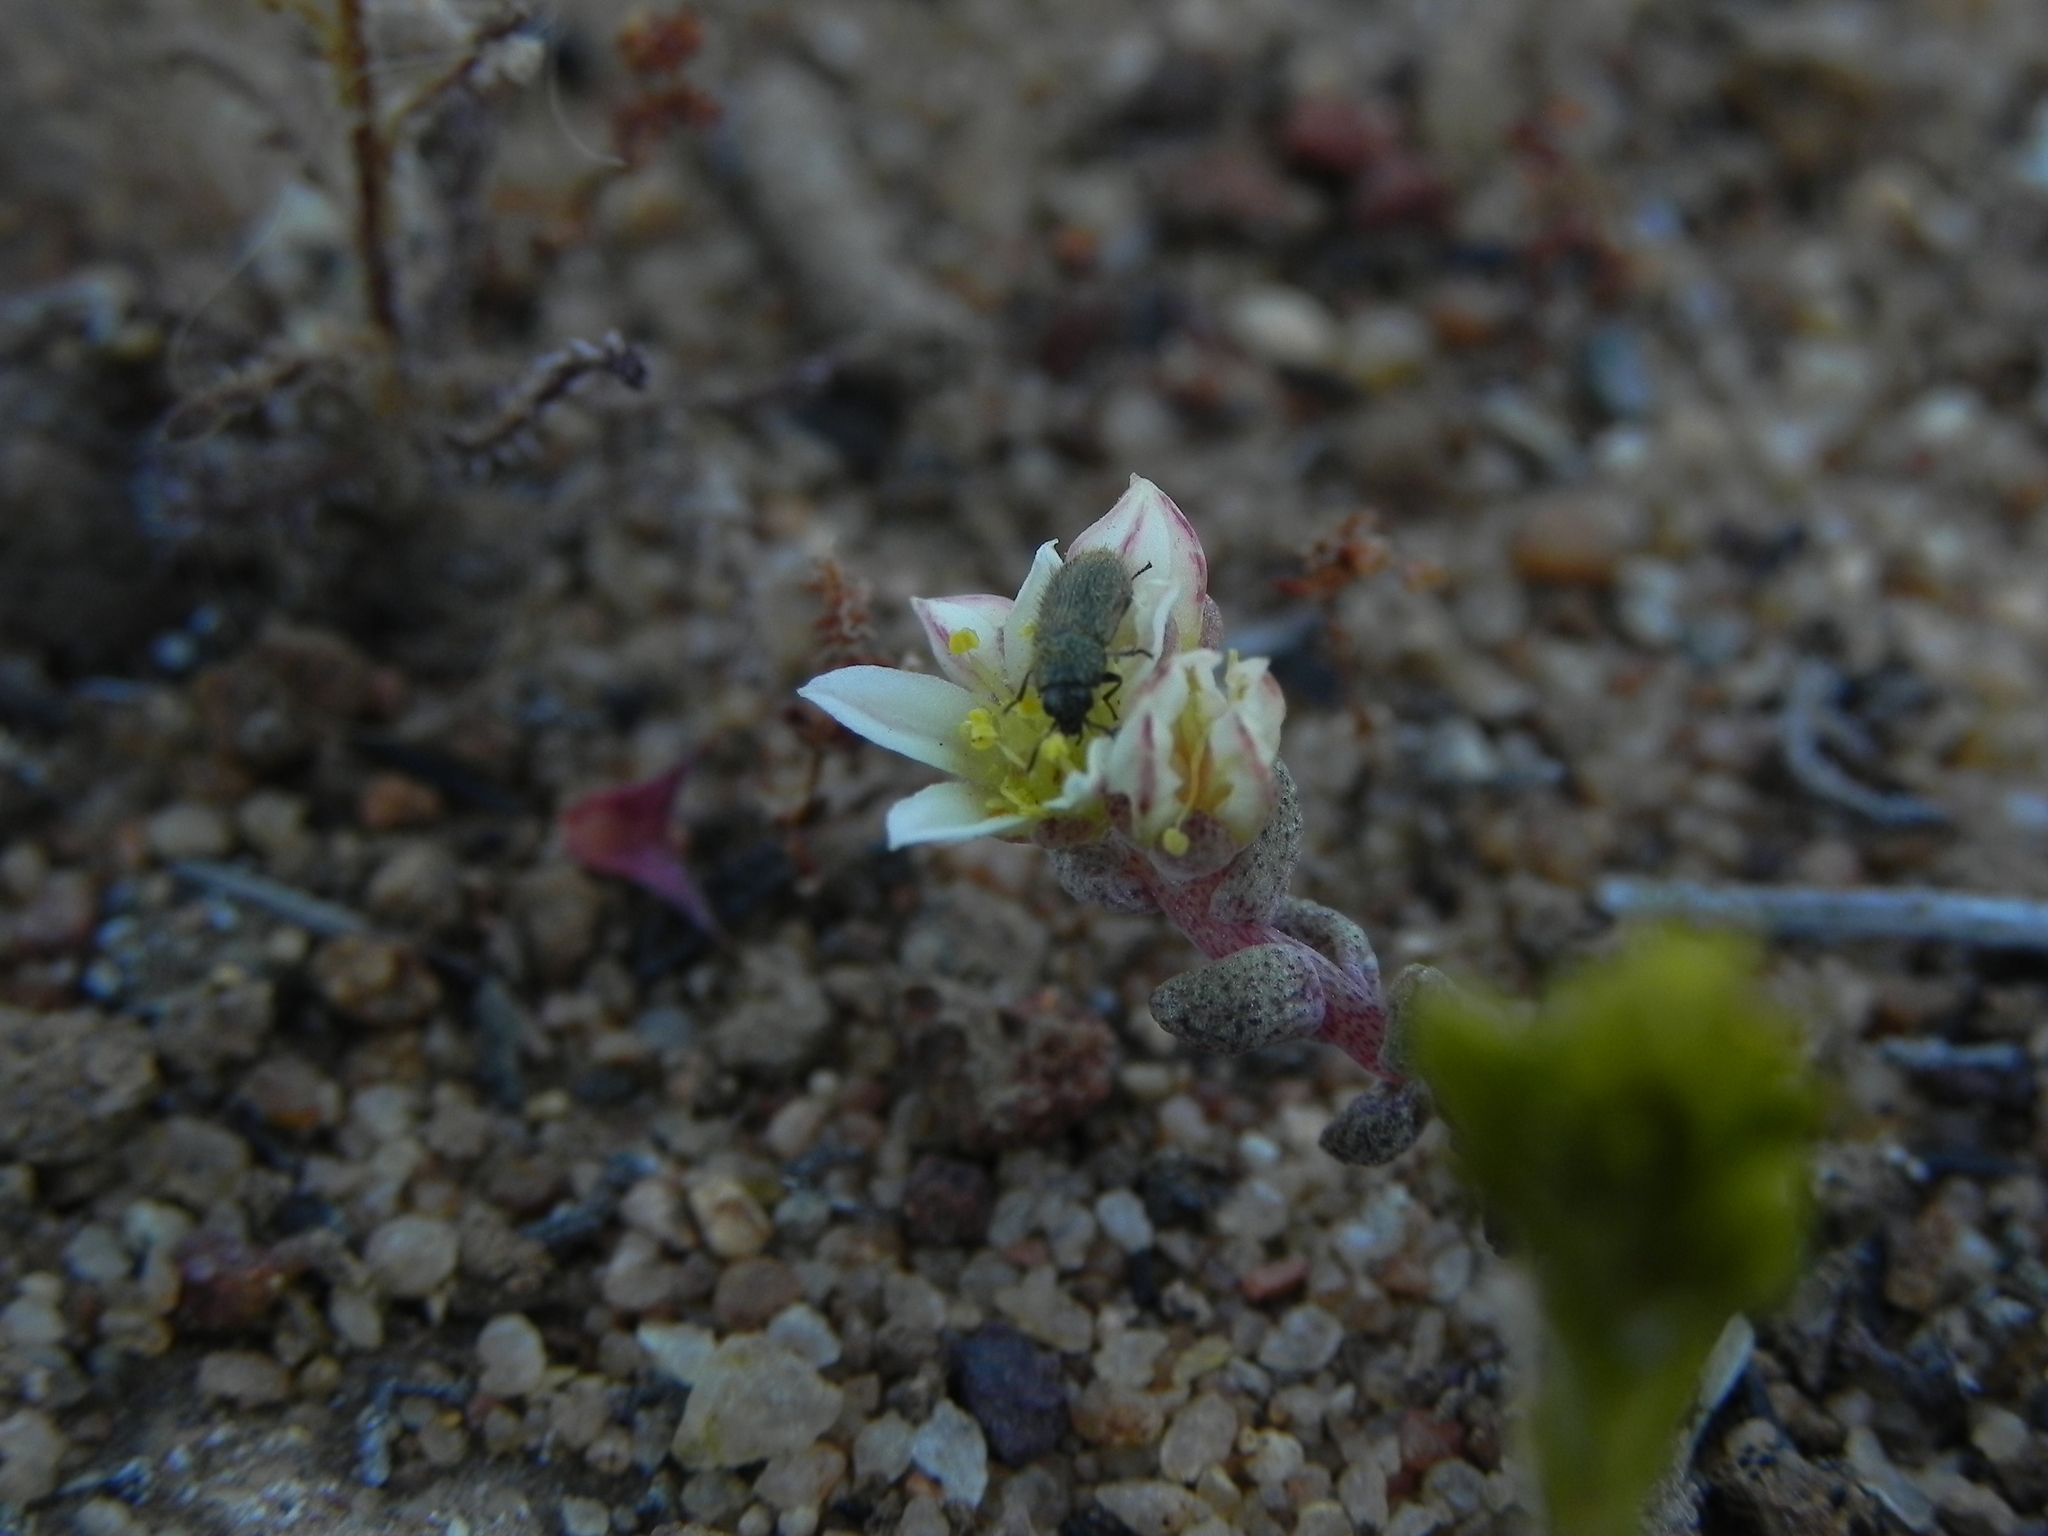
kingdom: Plantae
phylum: Tracheophyta
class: Magnoliopsida
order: Saxifragales
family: Crassulaceae
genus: Dudleya
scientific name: Dudleya blochmaniae
